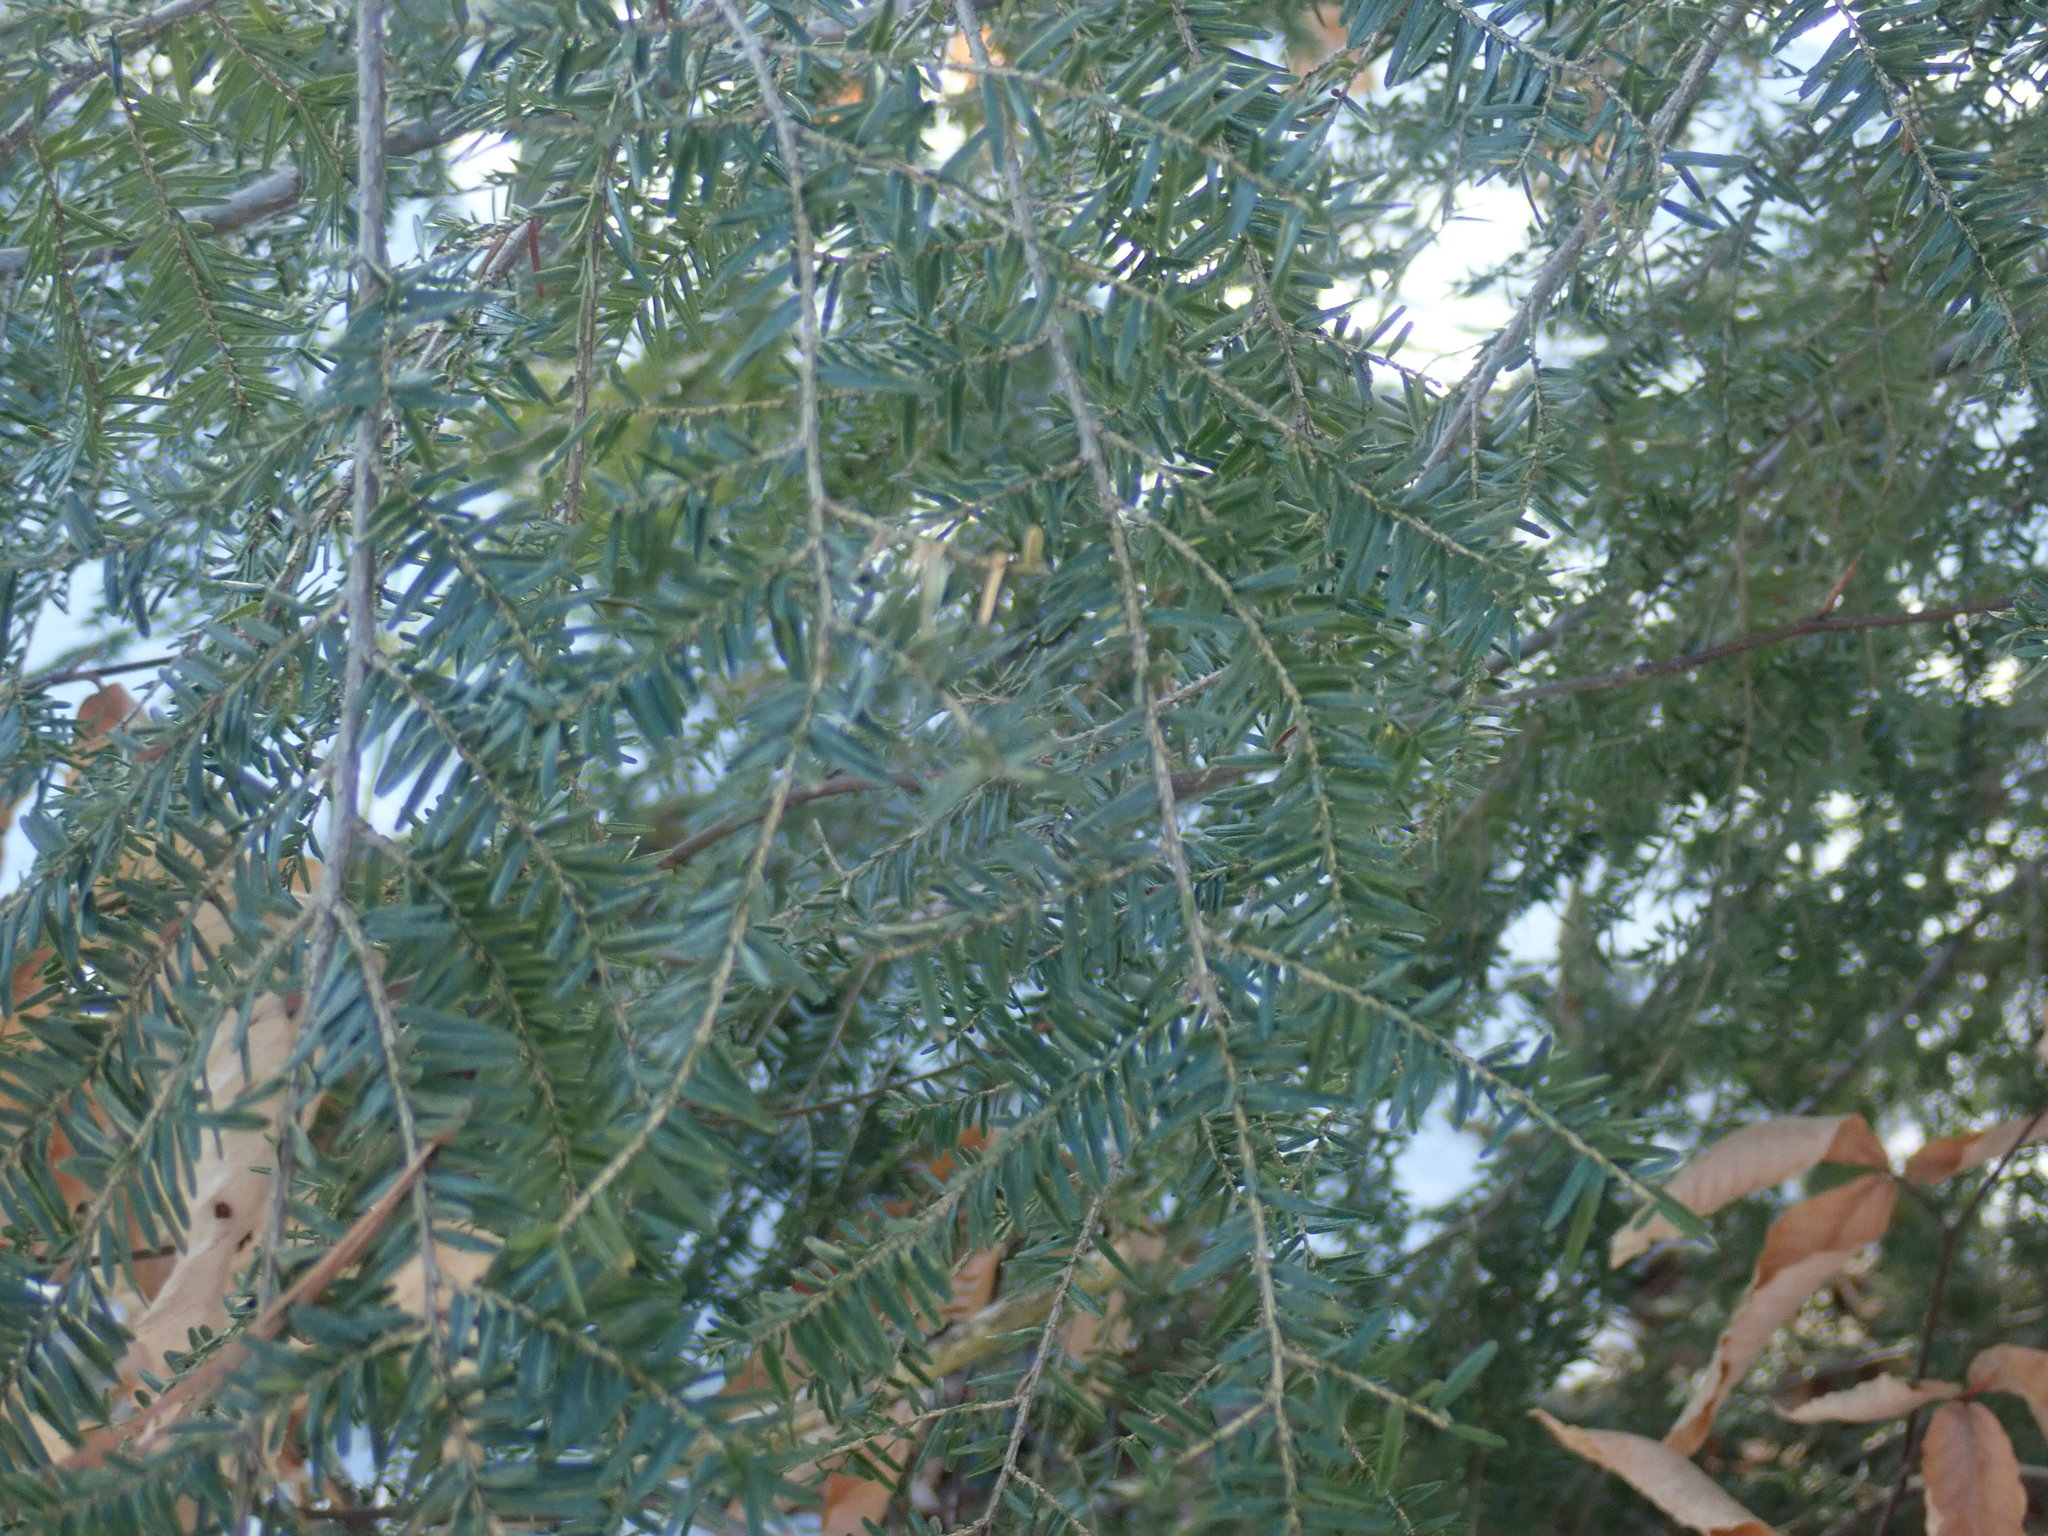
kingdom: Plantae
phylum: Tracheophyta
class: Pinopsida
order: Pinales
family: Pinaceae
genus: Tsuga
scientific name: Tsuga canadensis
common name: Eastern hemlock
